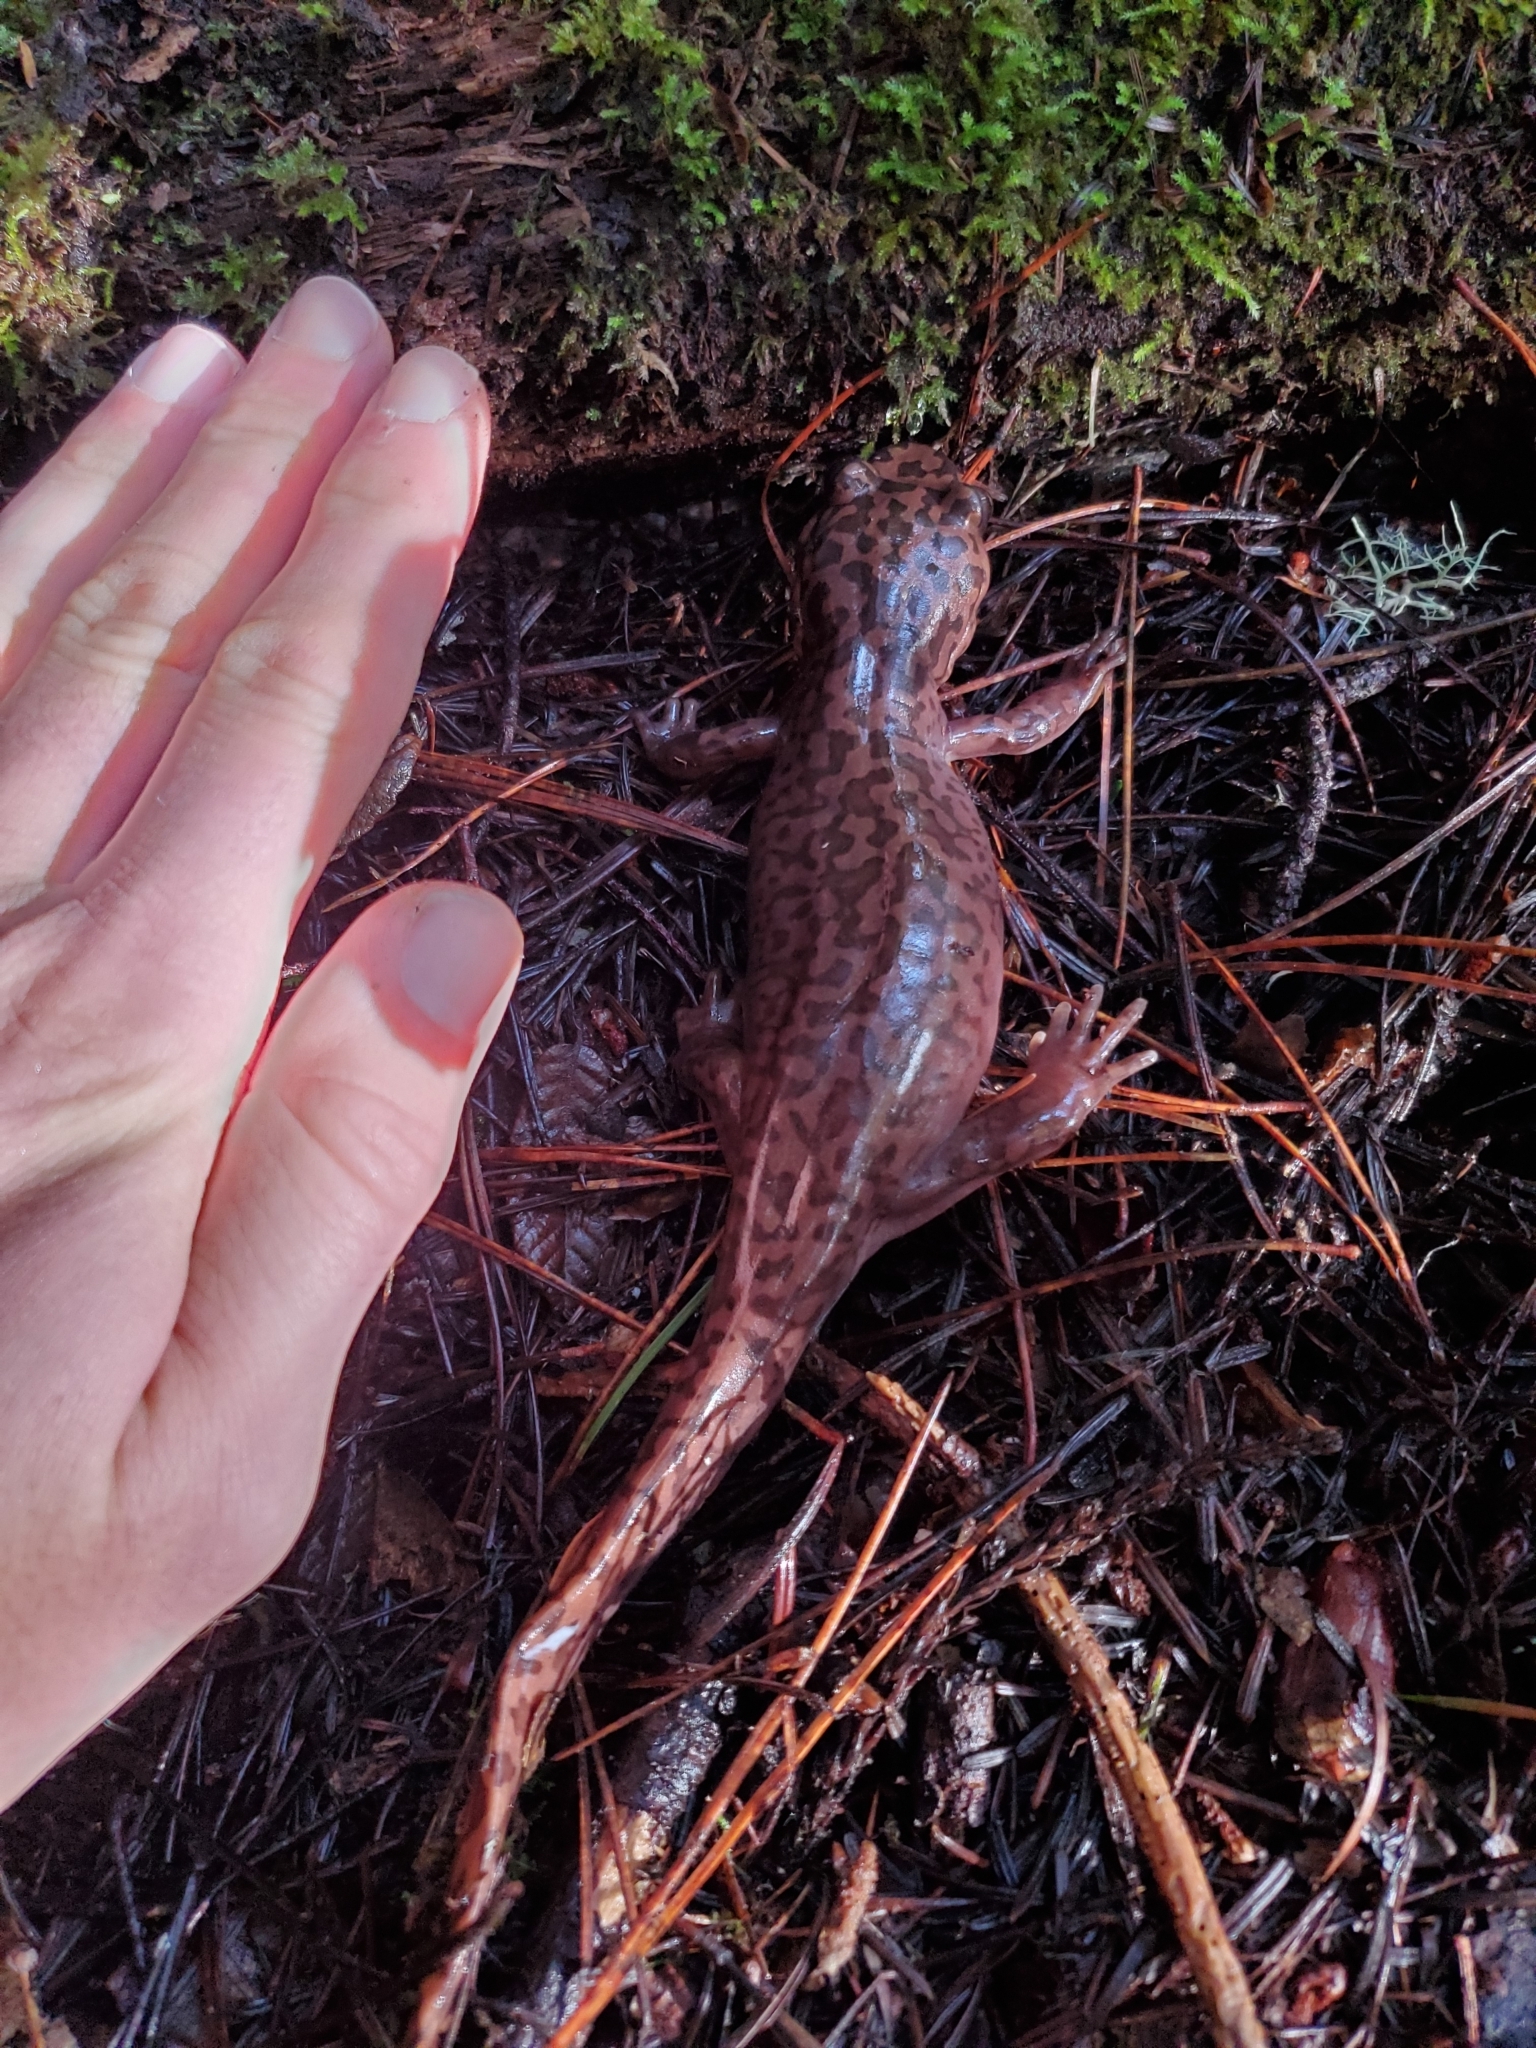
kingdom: Animalia
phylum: Chordata
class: Amphibia
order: Caudata
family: Ambystomatidae
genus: Dicamptodon
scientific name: Dicamptodon ensatus
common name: California giant salamander
